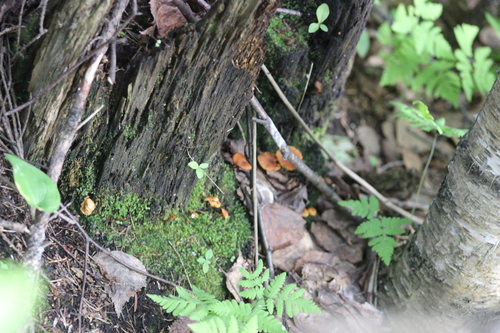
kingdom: Fungi
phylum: Basidiomycota
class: Agaricomycetes
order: Agaricales
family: Mycenaceae
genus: Xeromphalina
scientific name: Xeromphalina campanella
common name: Pinewood gingertail
